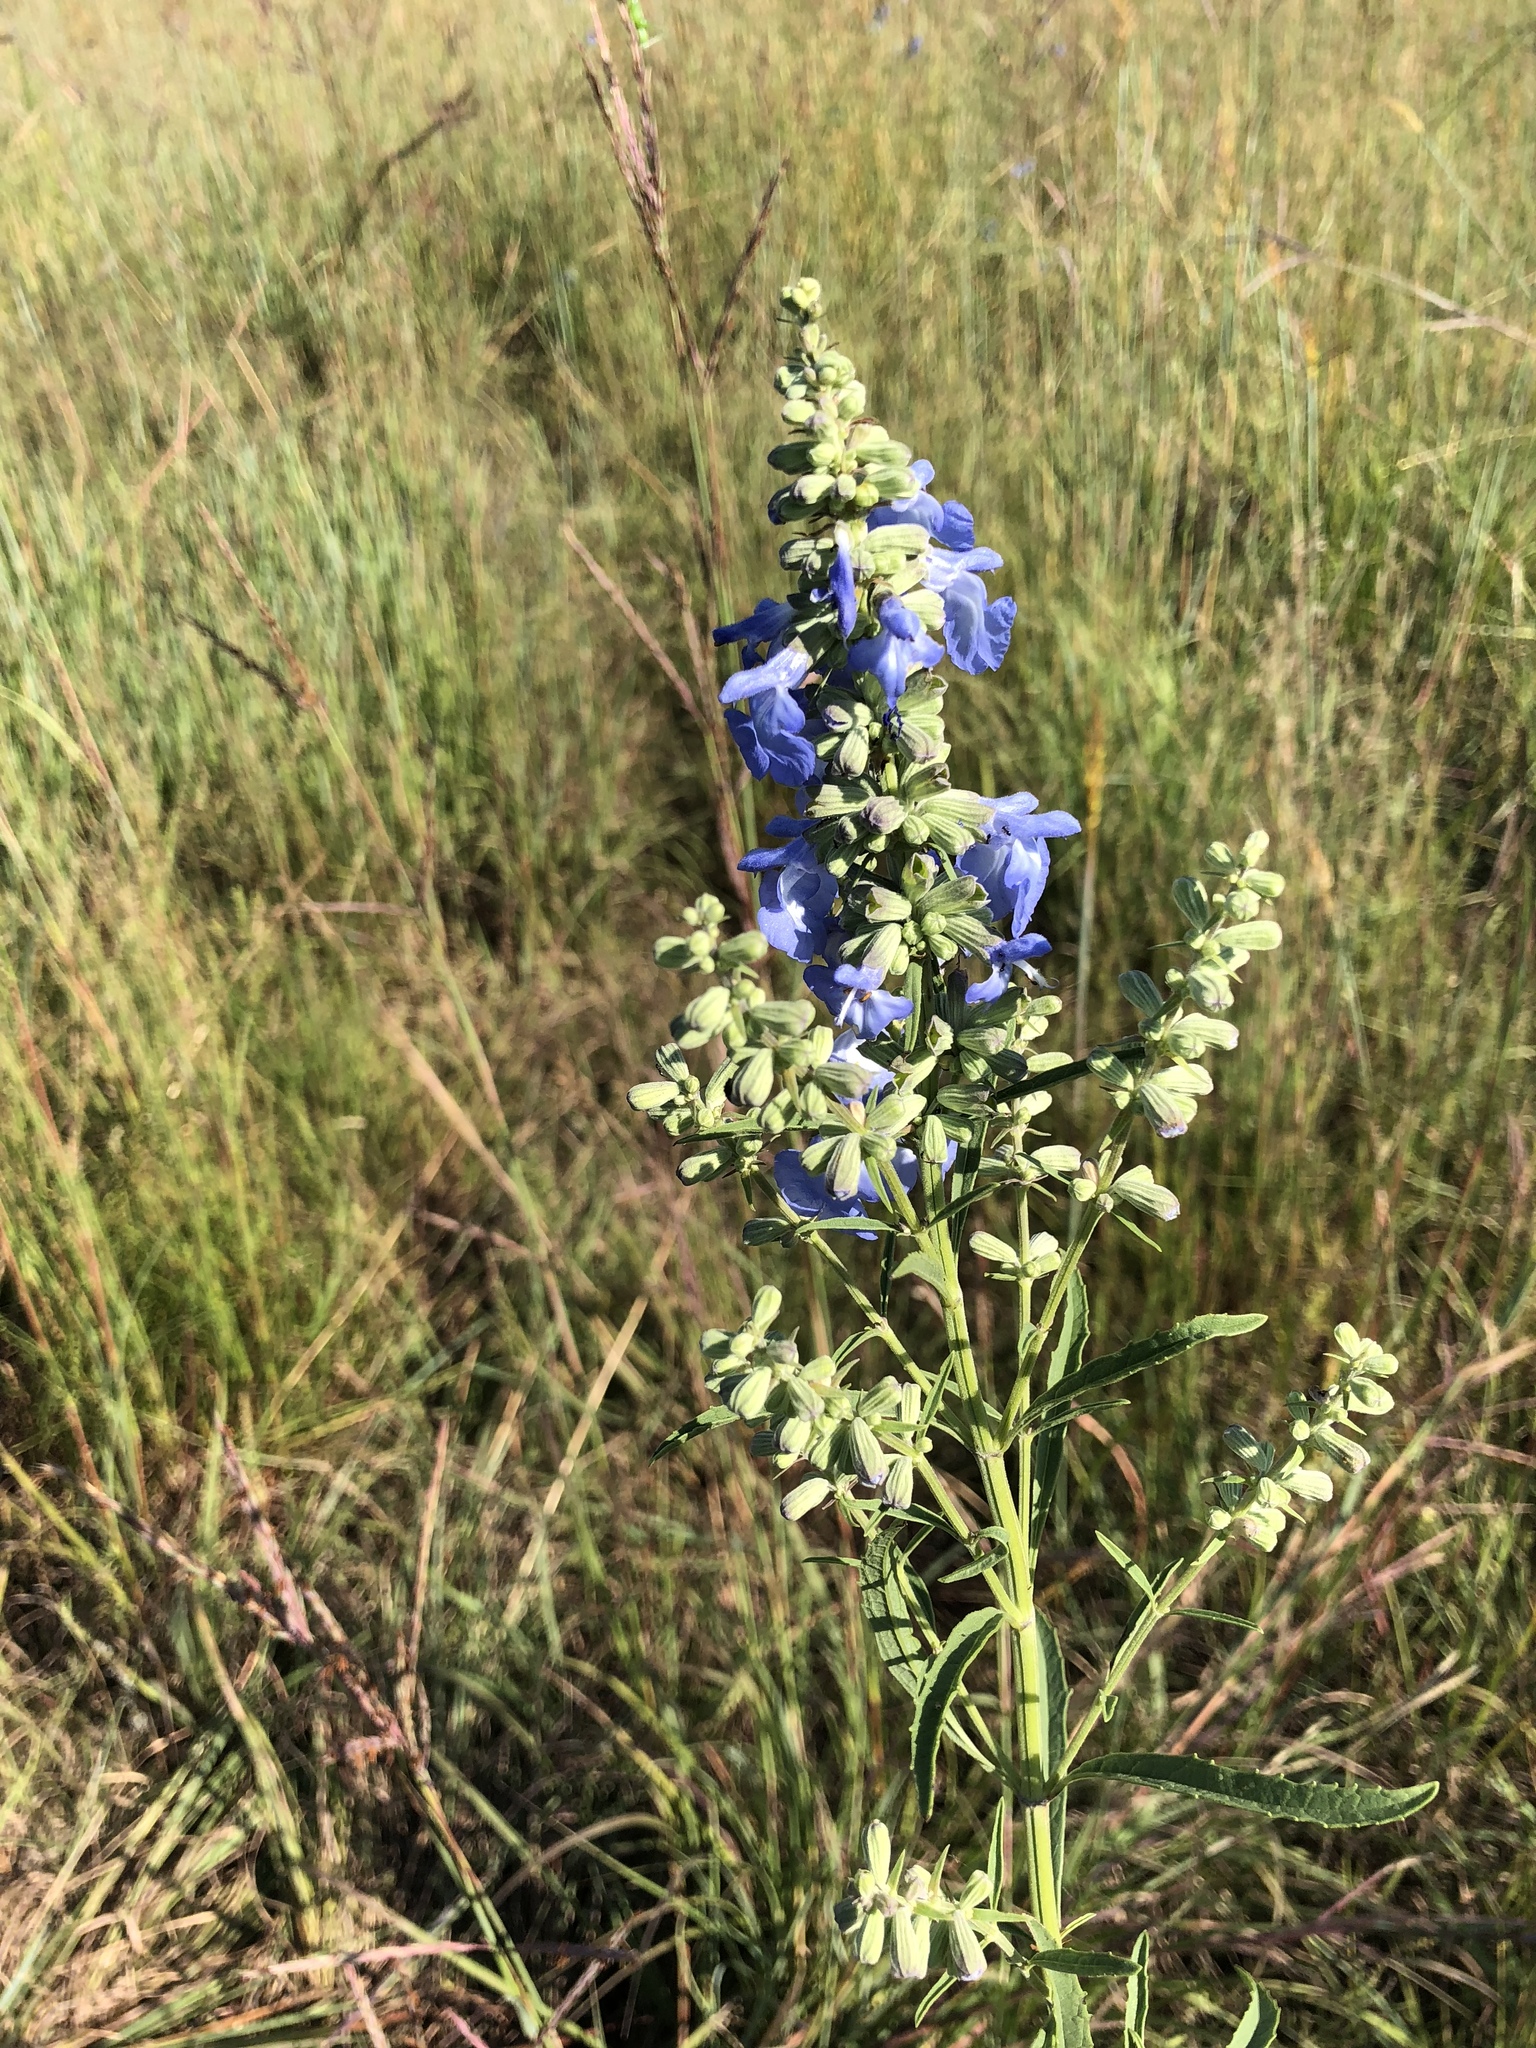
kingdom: Plantae
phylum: Tracheophyta
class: Magnoliopsida
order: Lamiales
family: Lamiaceae
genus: Salvia
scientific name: Salvia azurea
